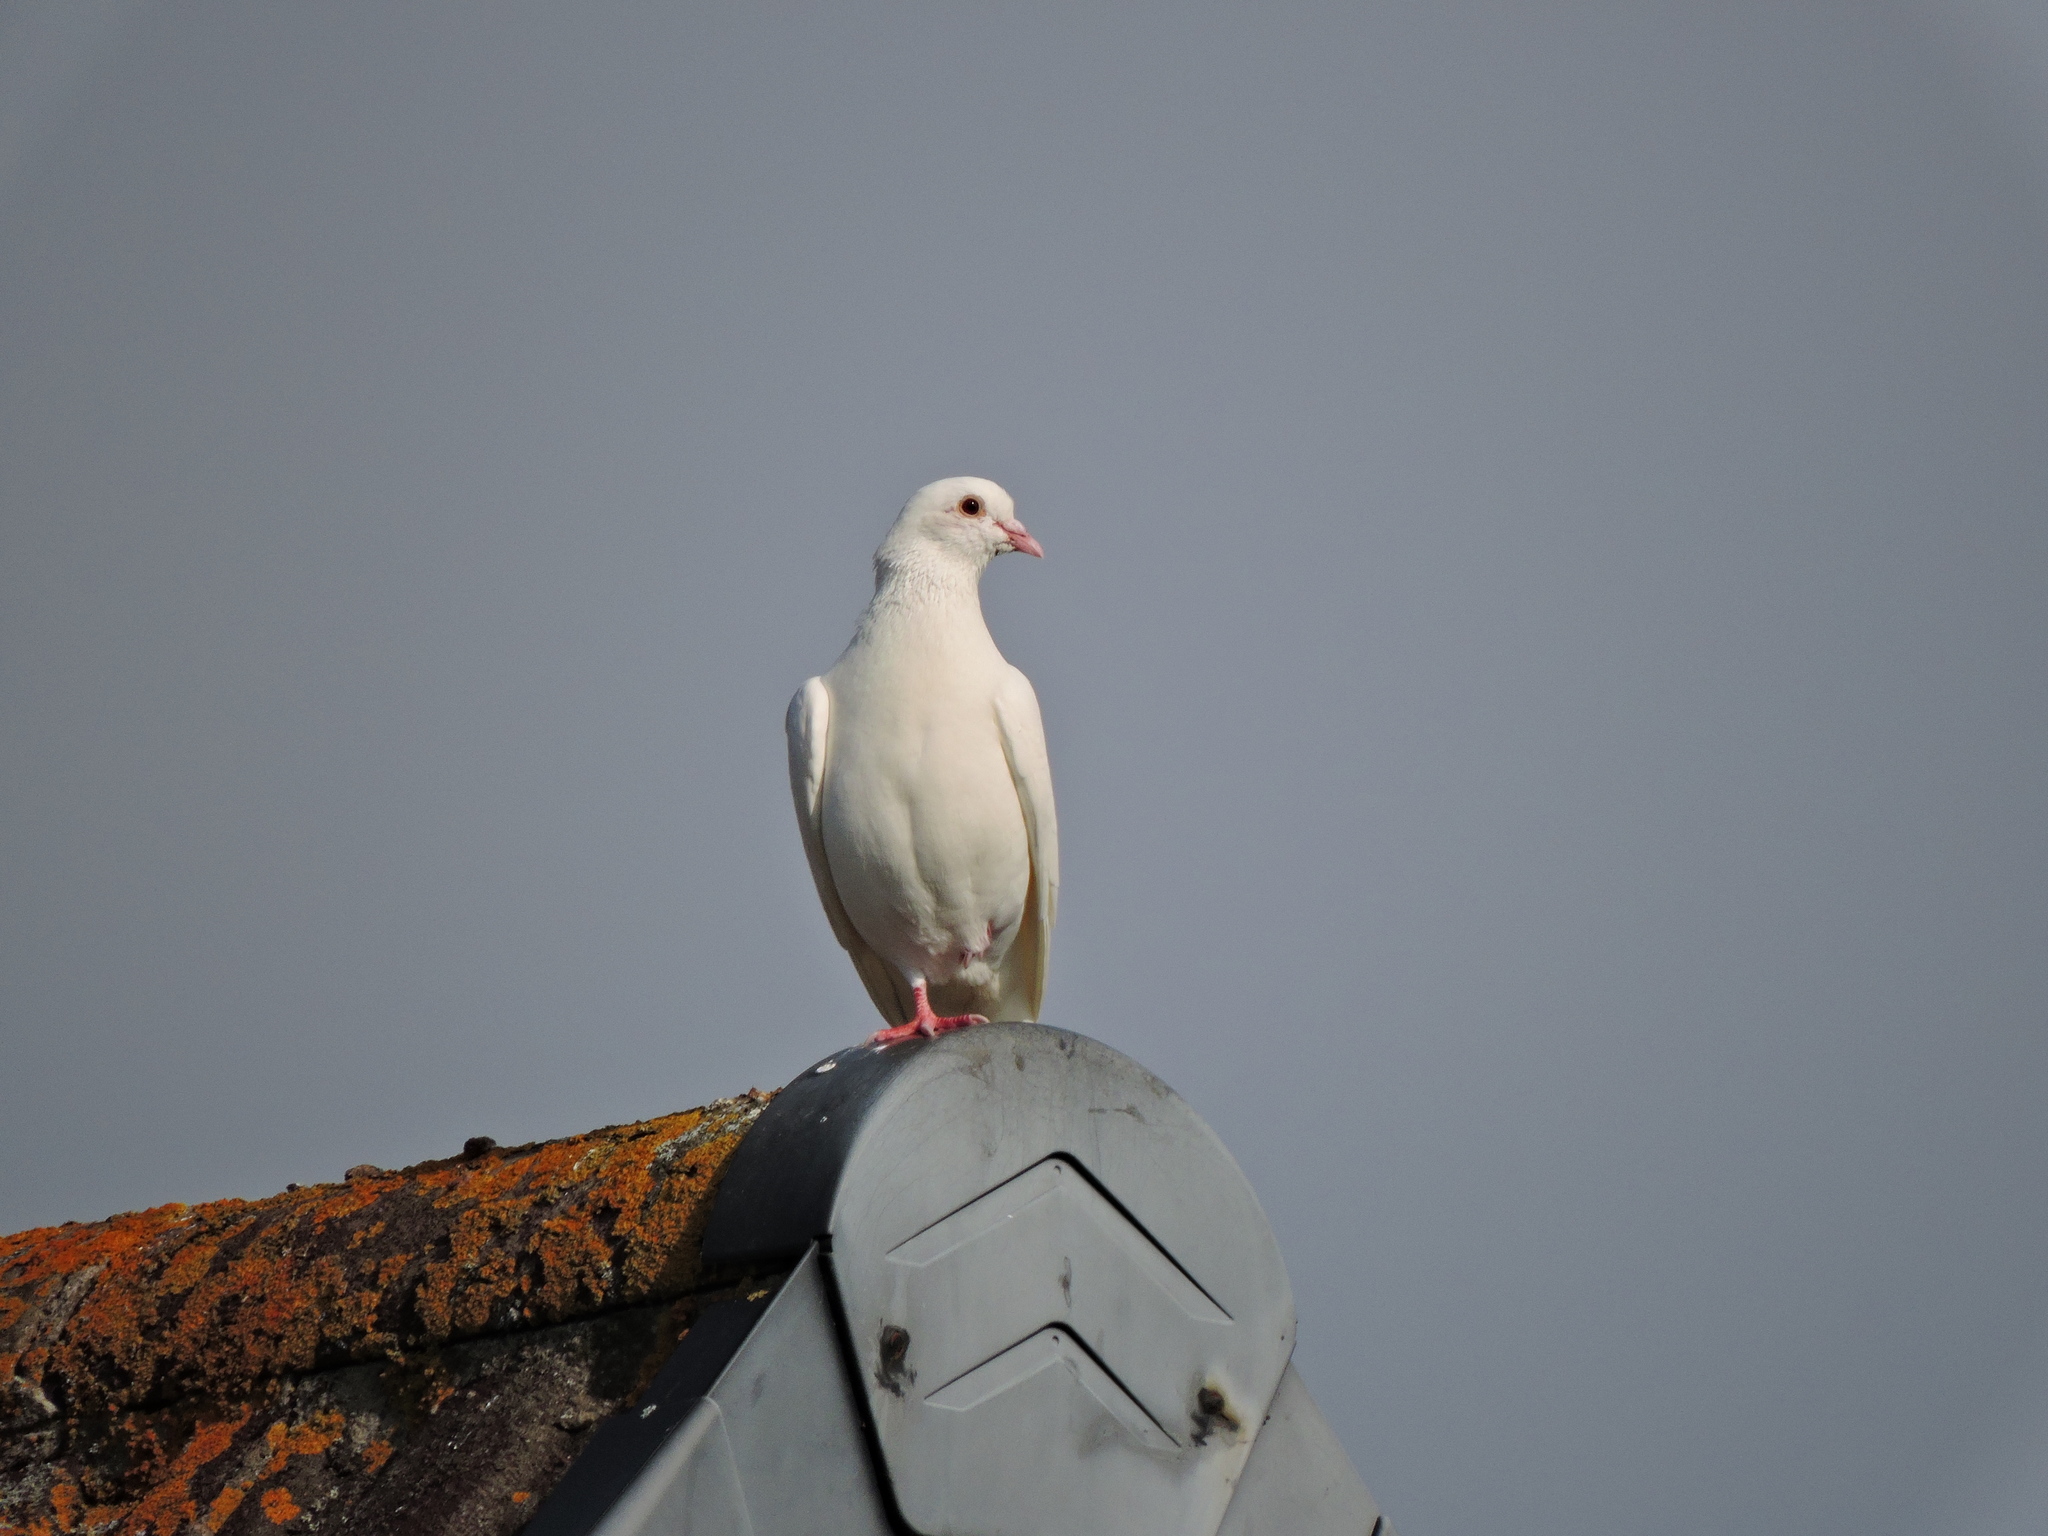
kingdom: Animalia
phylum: Chordata
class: Aves
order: Columbiformes
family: Columbidae
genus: Columba
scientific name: Columba livia
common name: Rock pigeon
